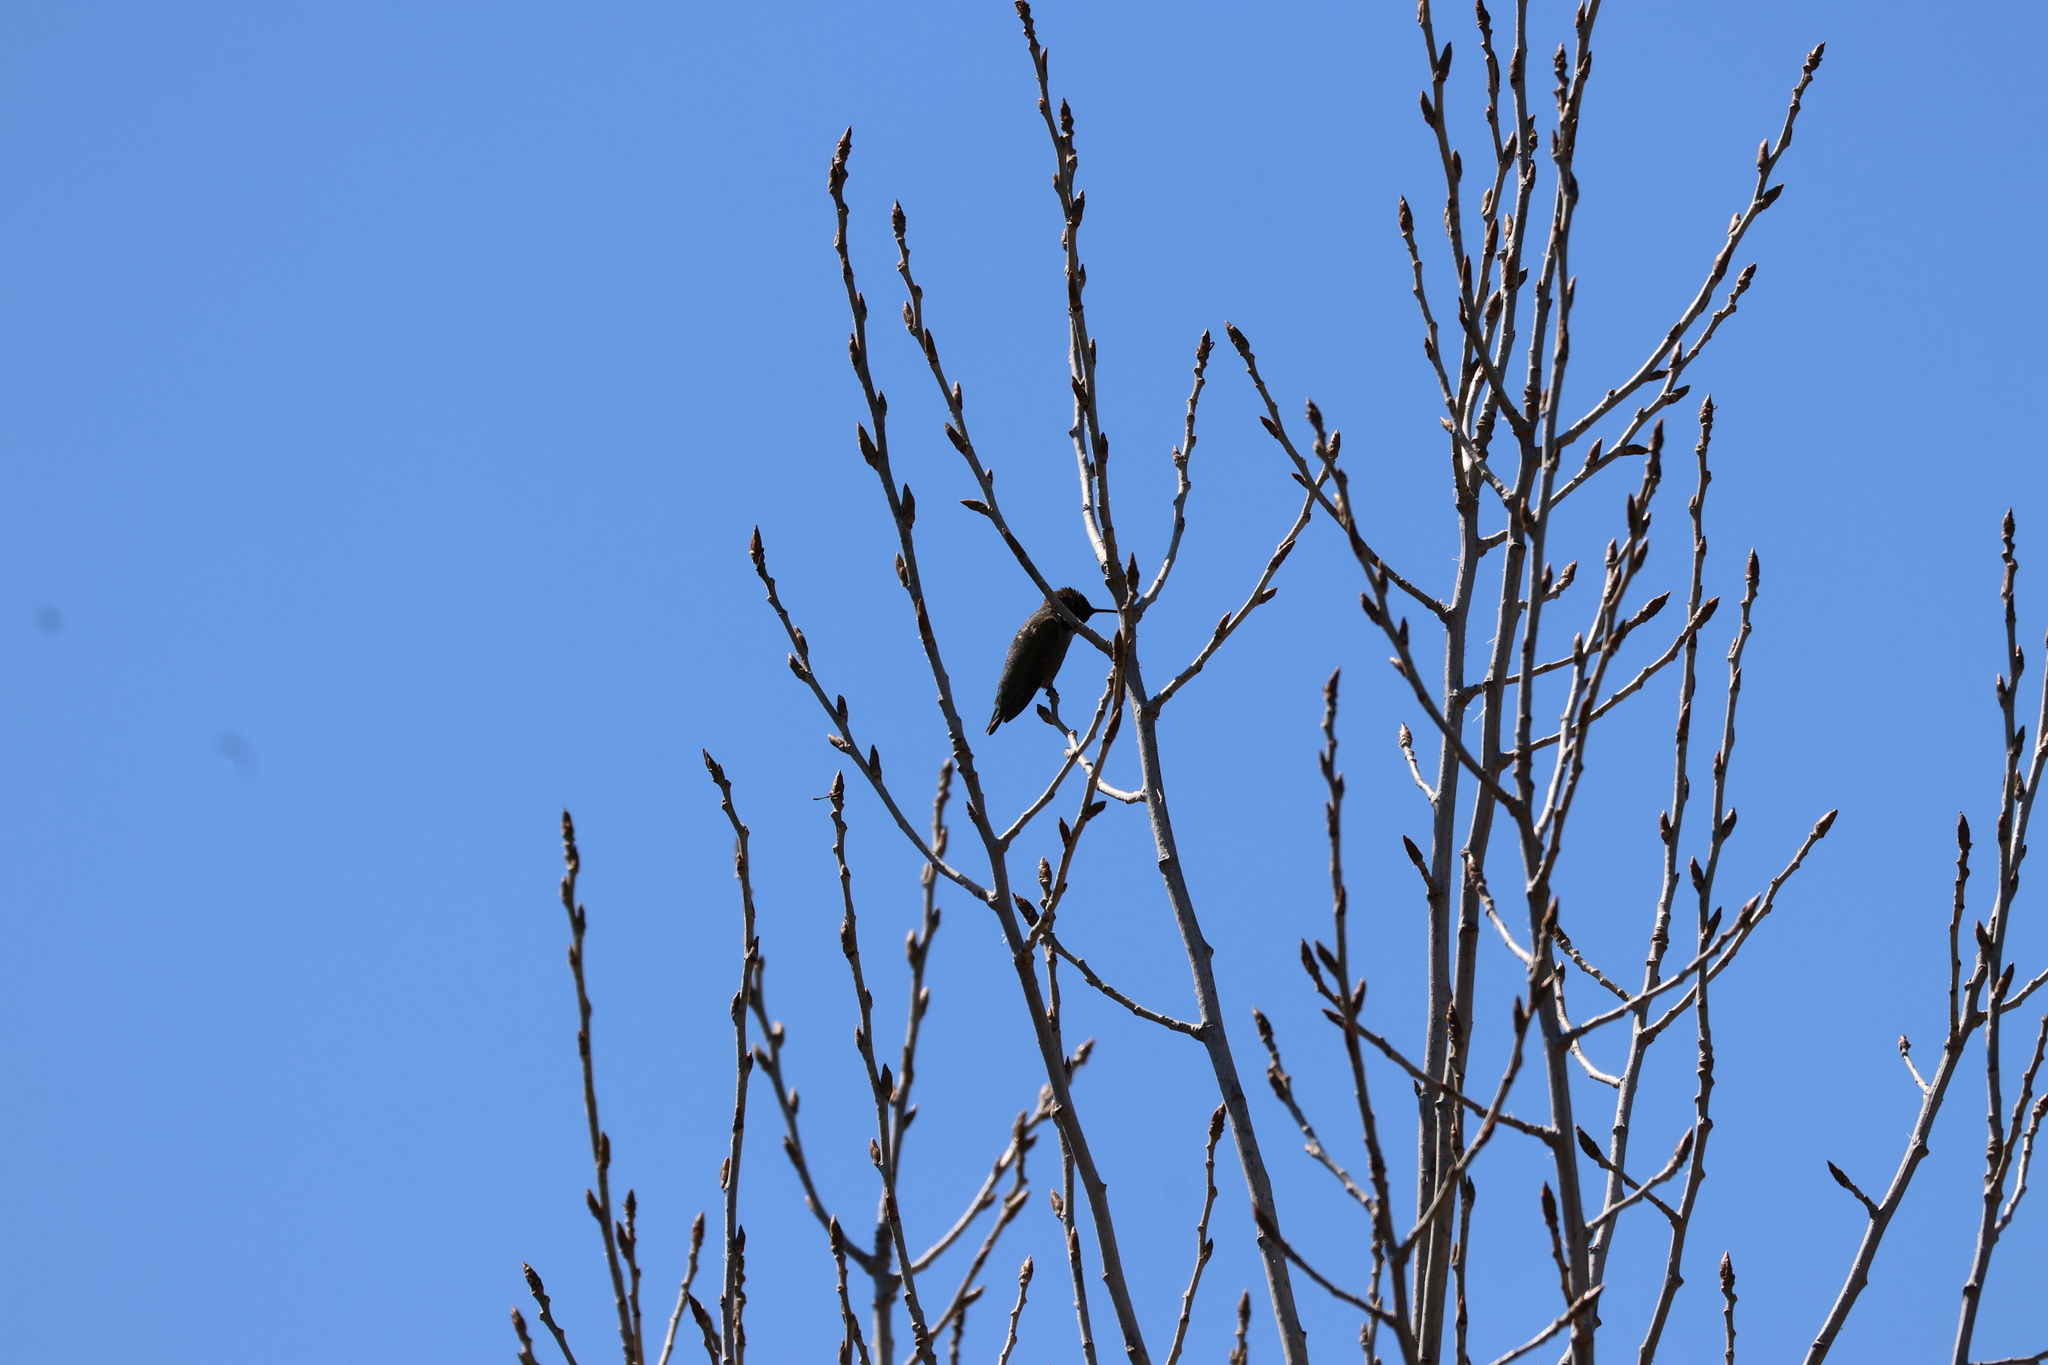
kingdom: Animalia
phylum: Chordata
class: Aves
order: Apodiformes
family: Trochilidae
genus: Calypte
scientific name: Calypte anna
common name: Anna's hummingbird
